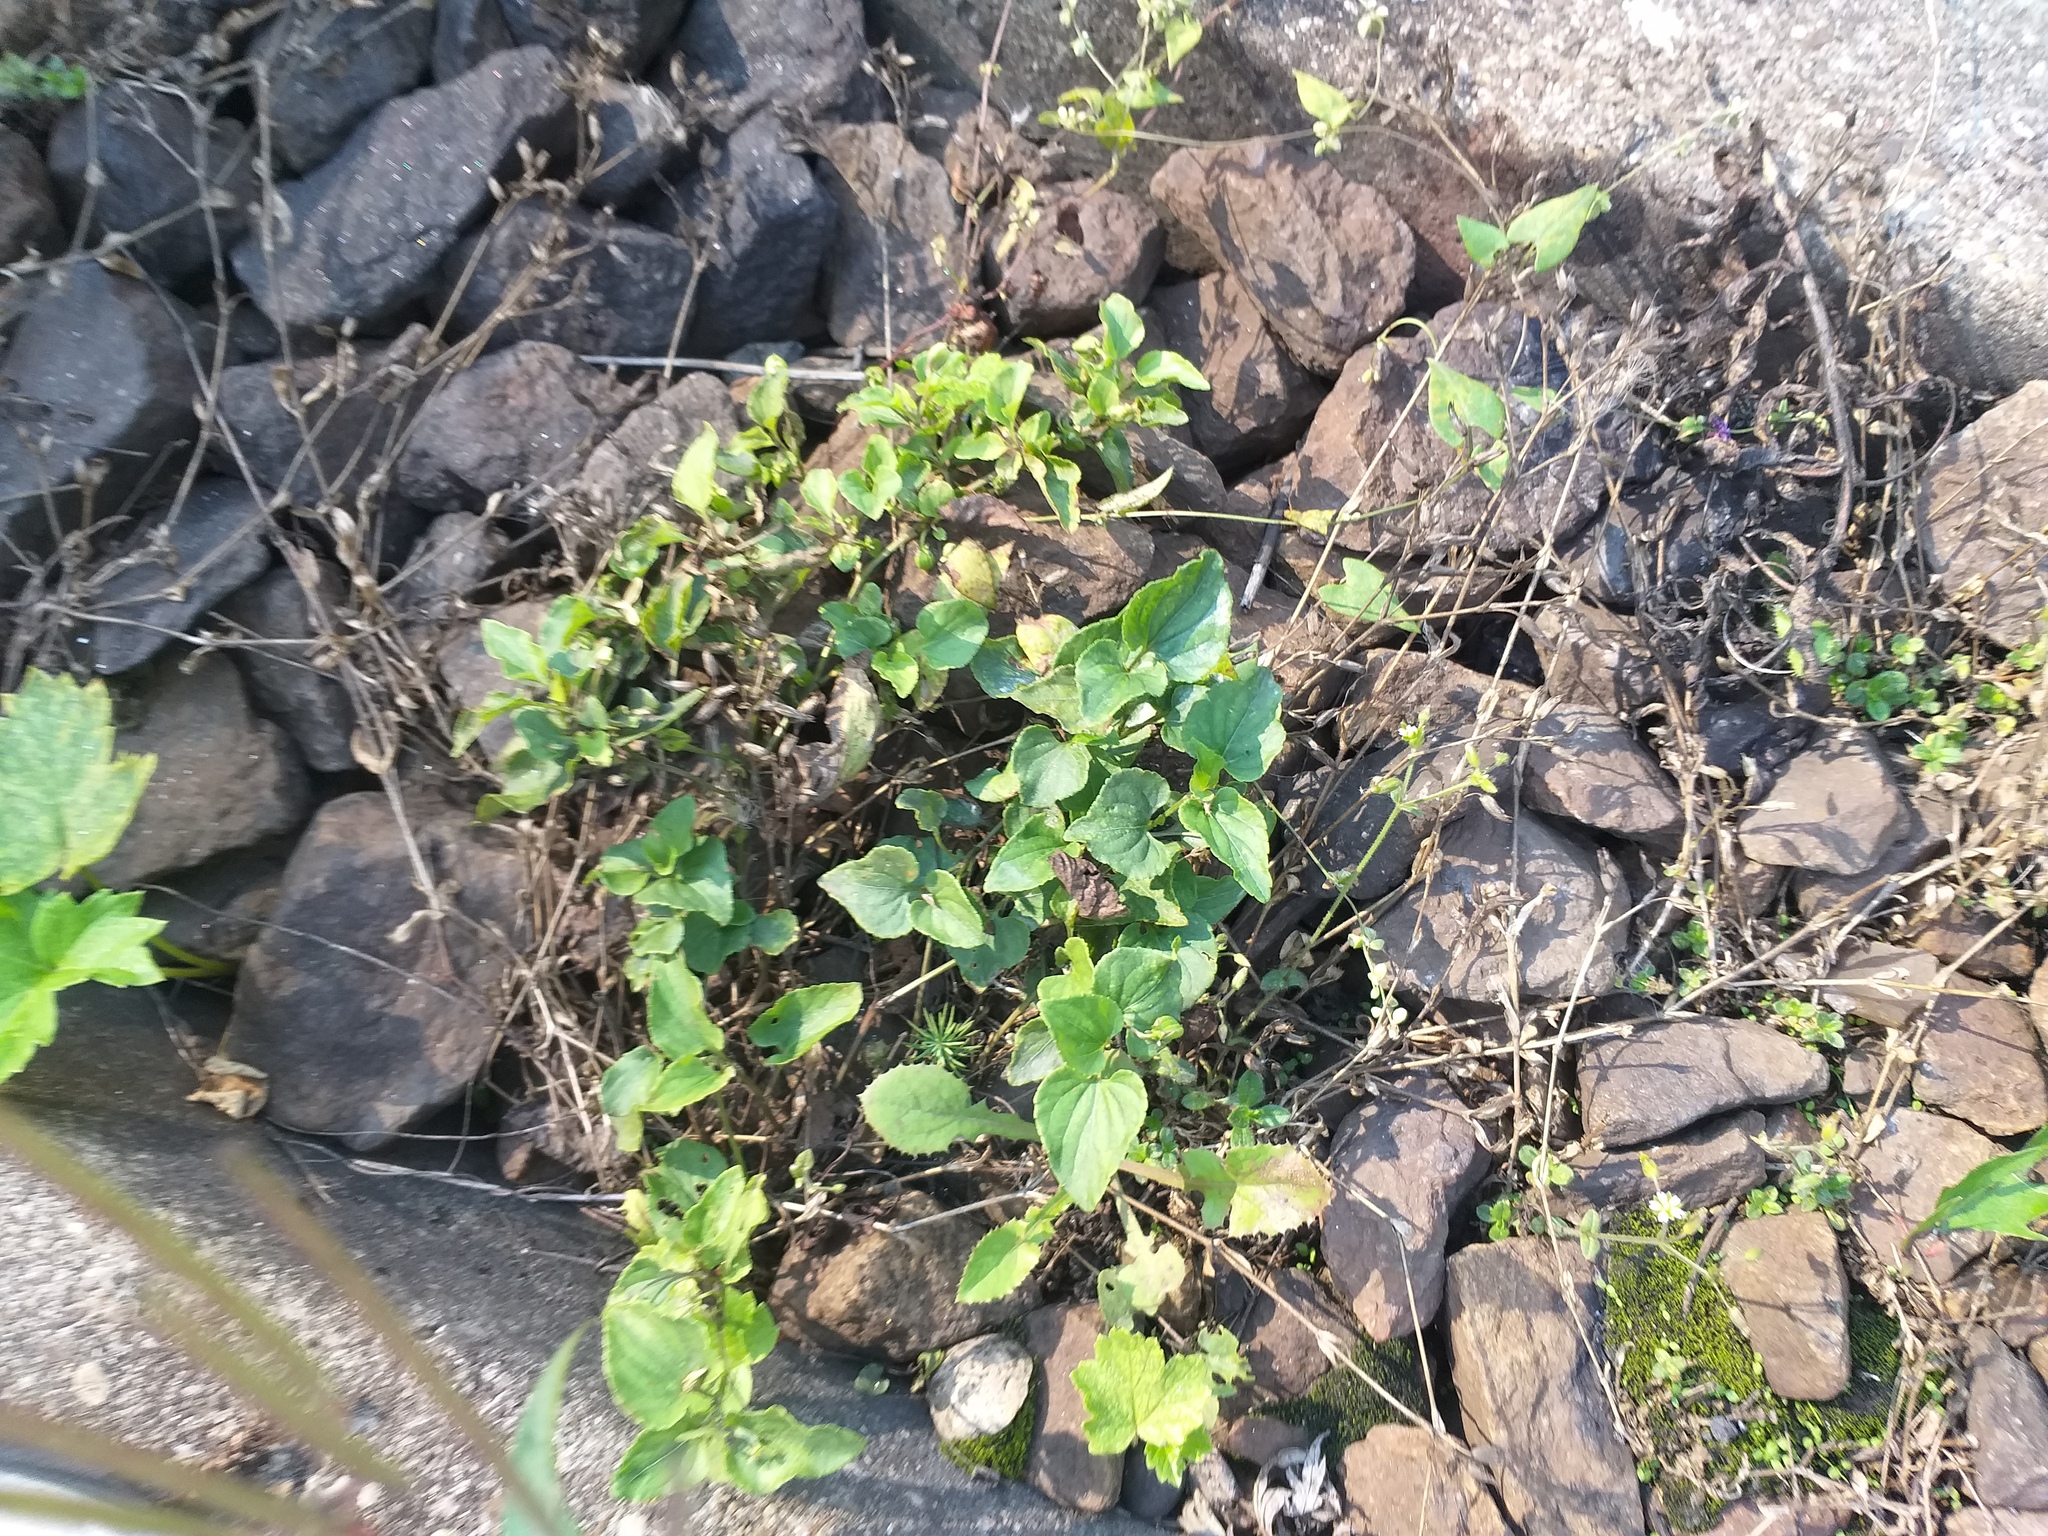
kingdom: Plantae
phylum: Tracheophyta
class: Magnoliopsida
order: Malpighiales
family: Violaceae
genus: Viola
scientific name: Viola canina
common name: Heath dog-violet
